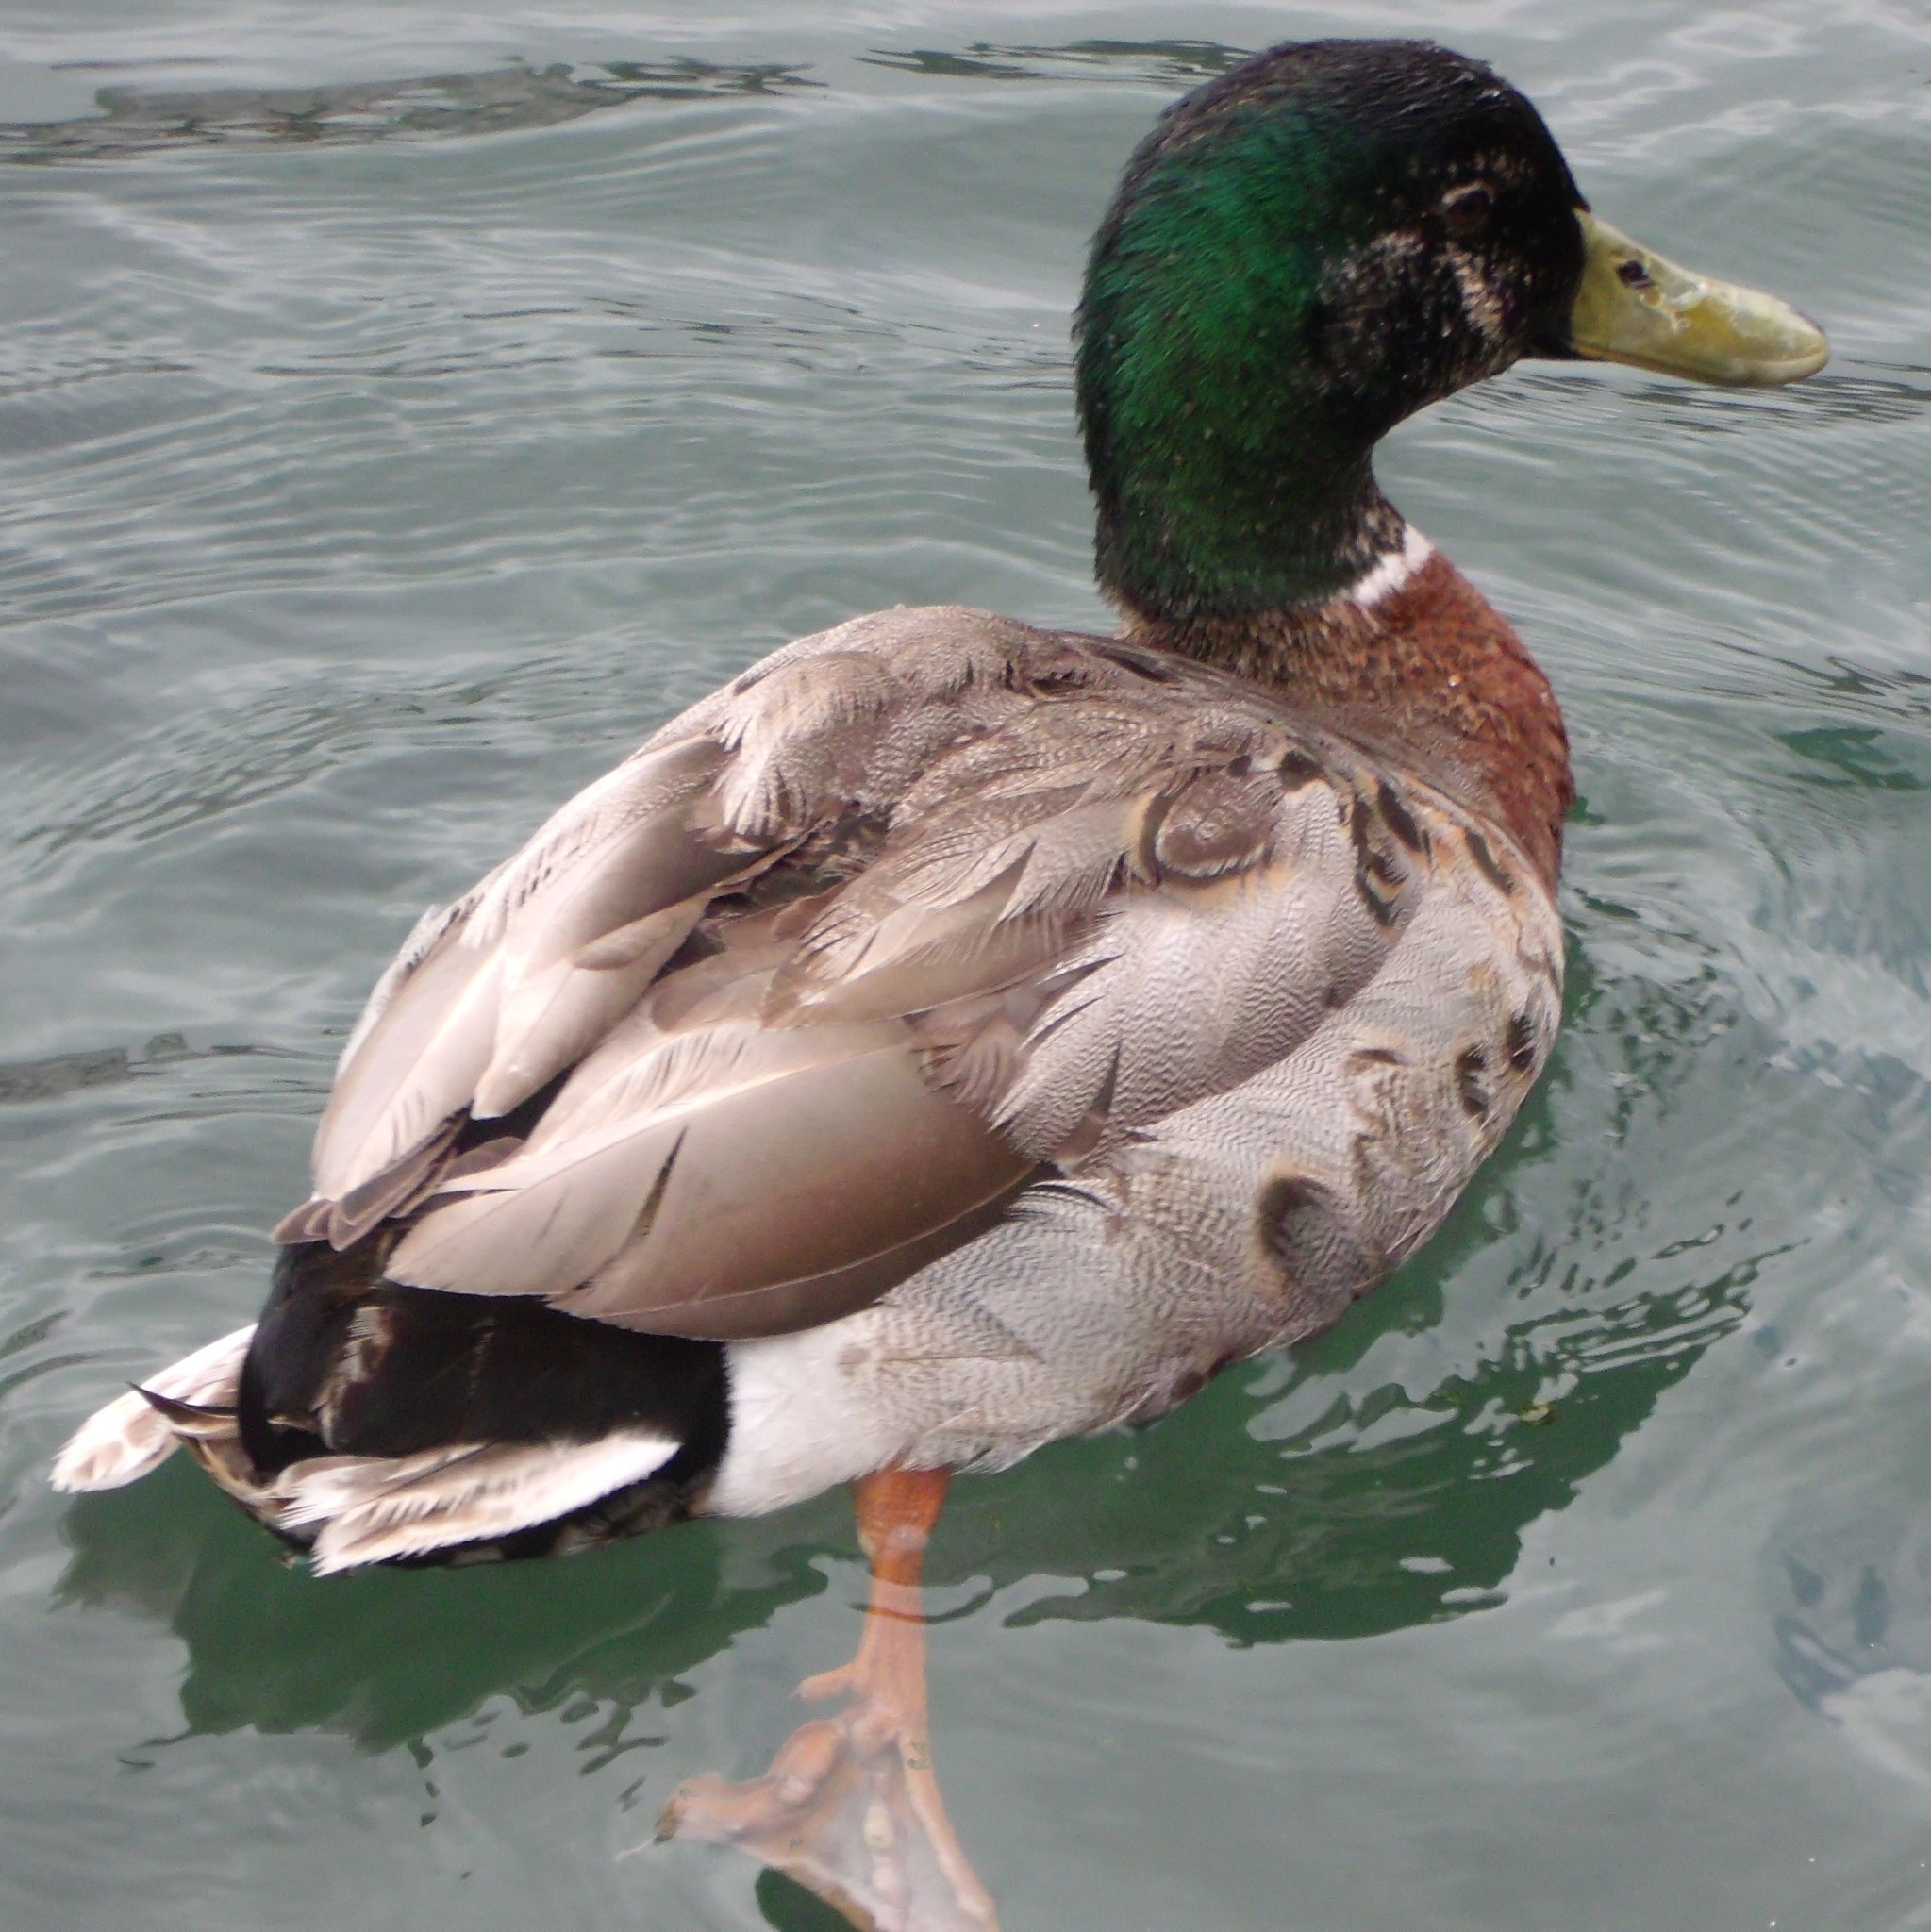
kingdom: Animalia
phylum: Chordata
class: Aves
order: Anseriformes
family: Anatidae
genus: Anas
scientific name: Anas platyrhynchos
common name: Mallard
